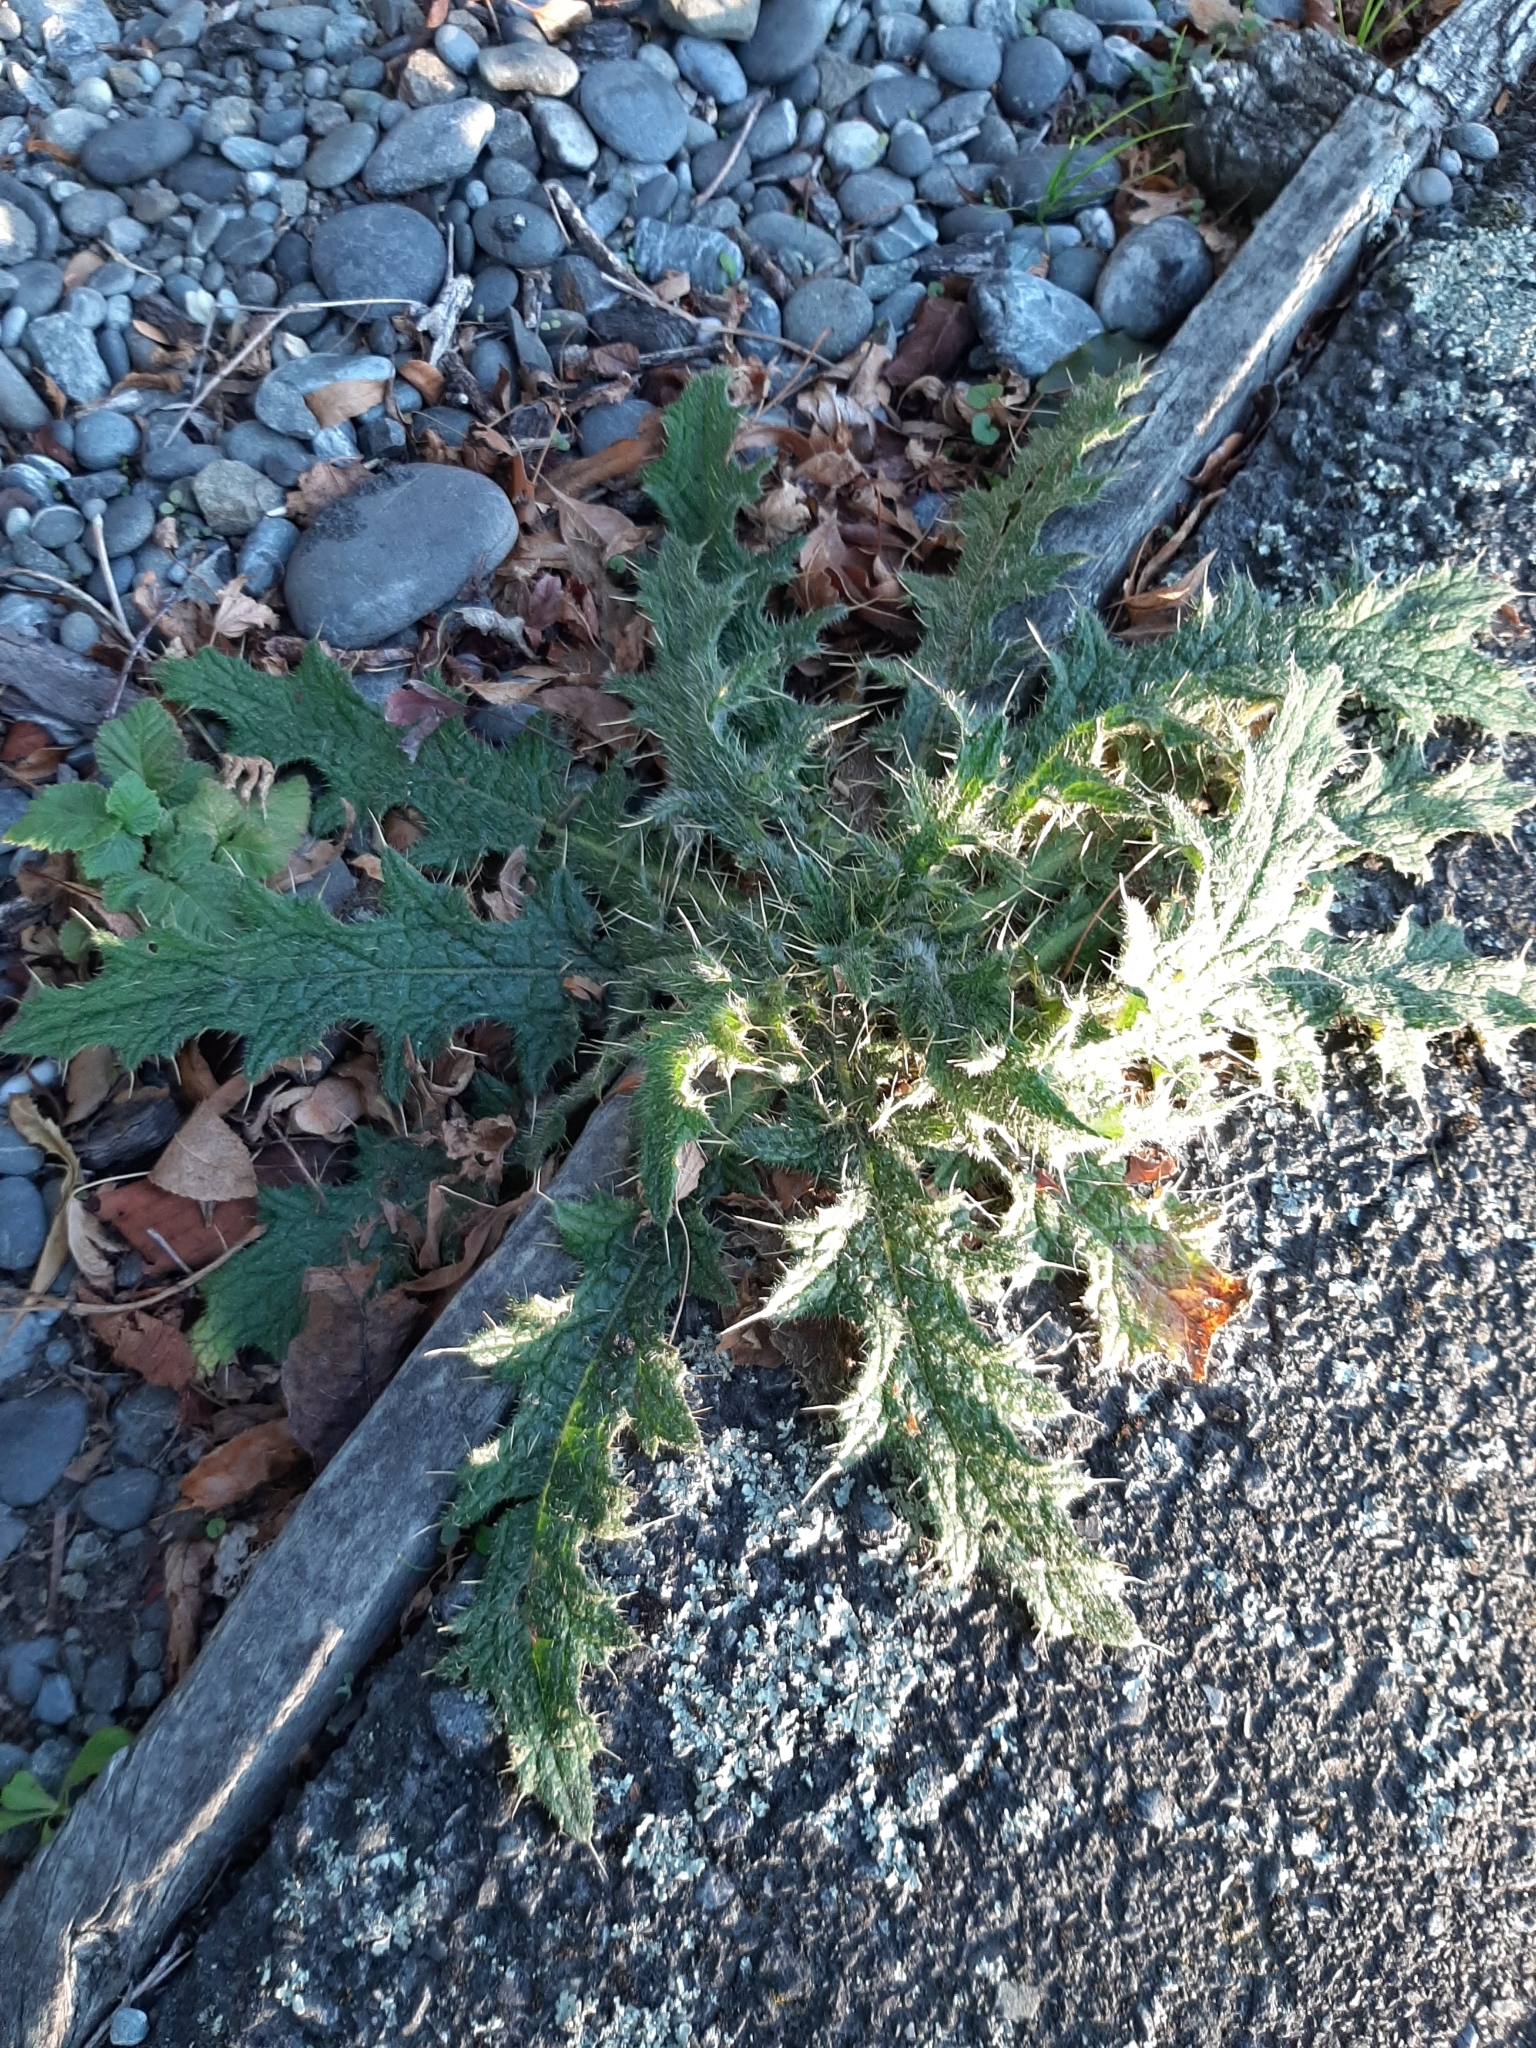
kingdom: Plantae
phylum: Tracheophyta
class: Magnoliopsida
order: Asterales
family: Asteraceae
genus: Cirsium
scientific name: Cirsium vulgare
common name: Bull thistle
